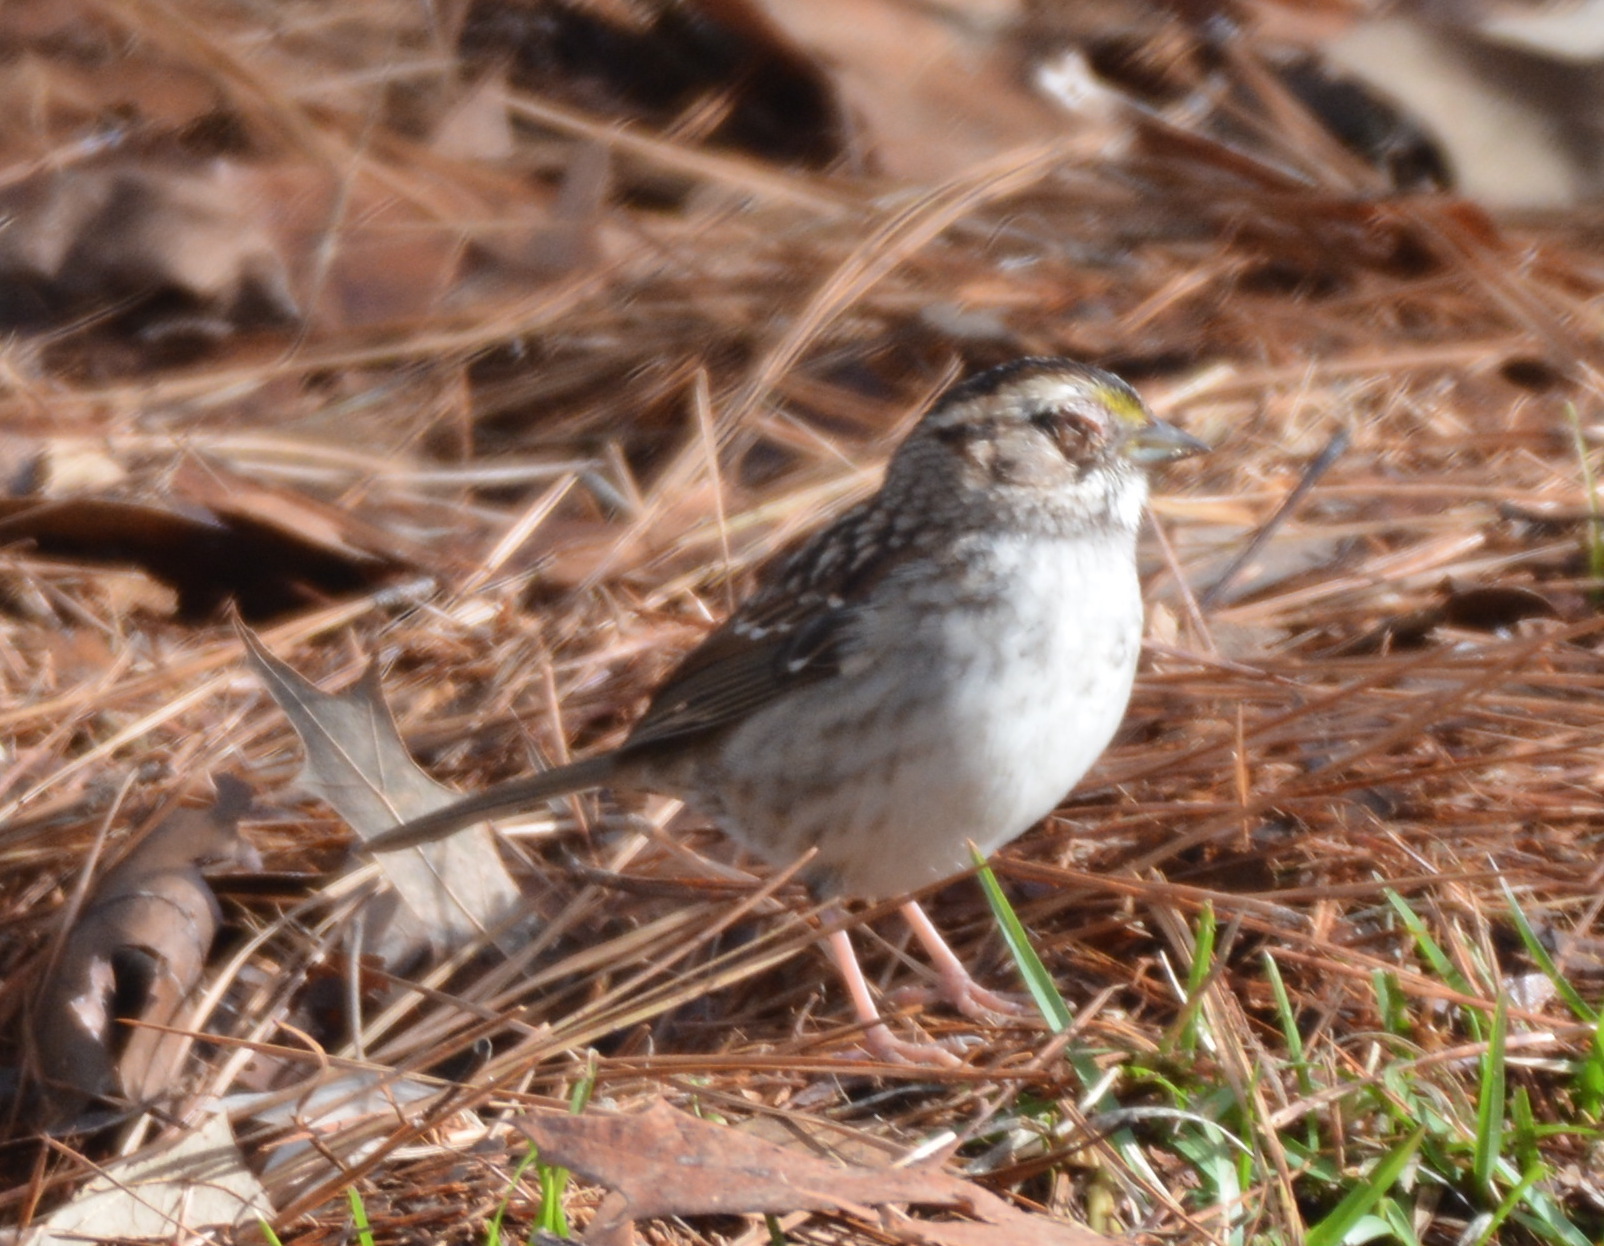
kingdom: Animalia
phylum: Chordata
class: Aves
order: Passeriformes
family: Passerellidae
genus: Zonotrichia
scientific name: Zonotrichia albicollis
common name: White-throated sparrow
